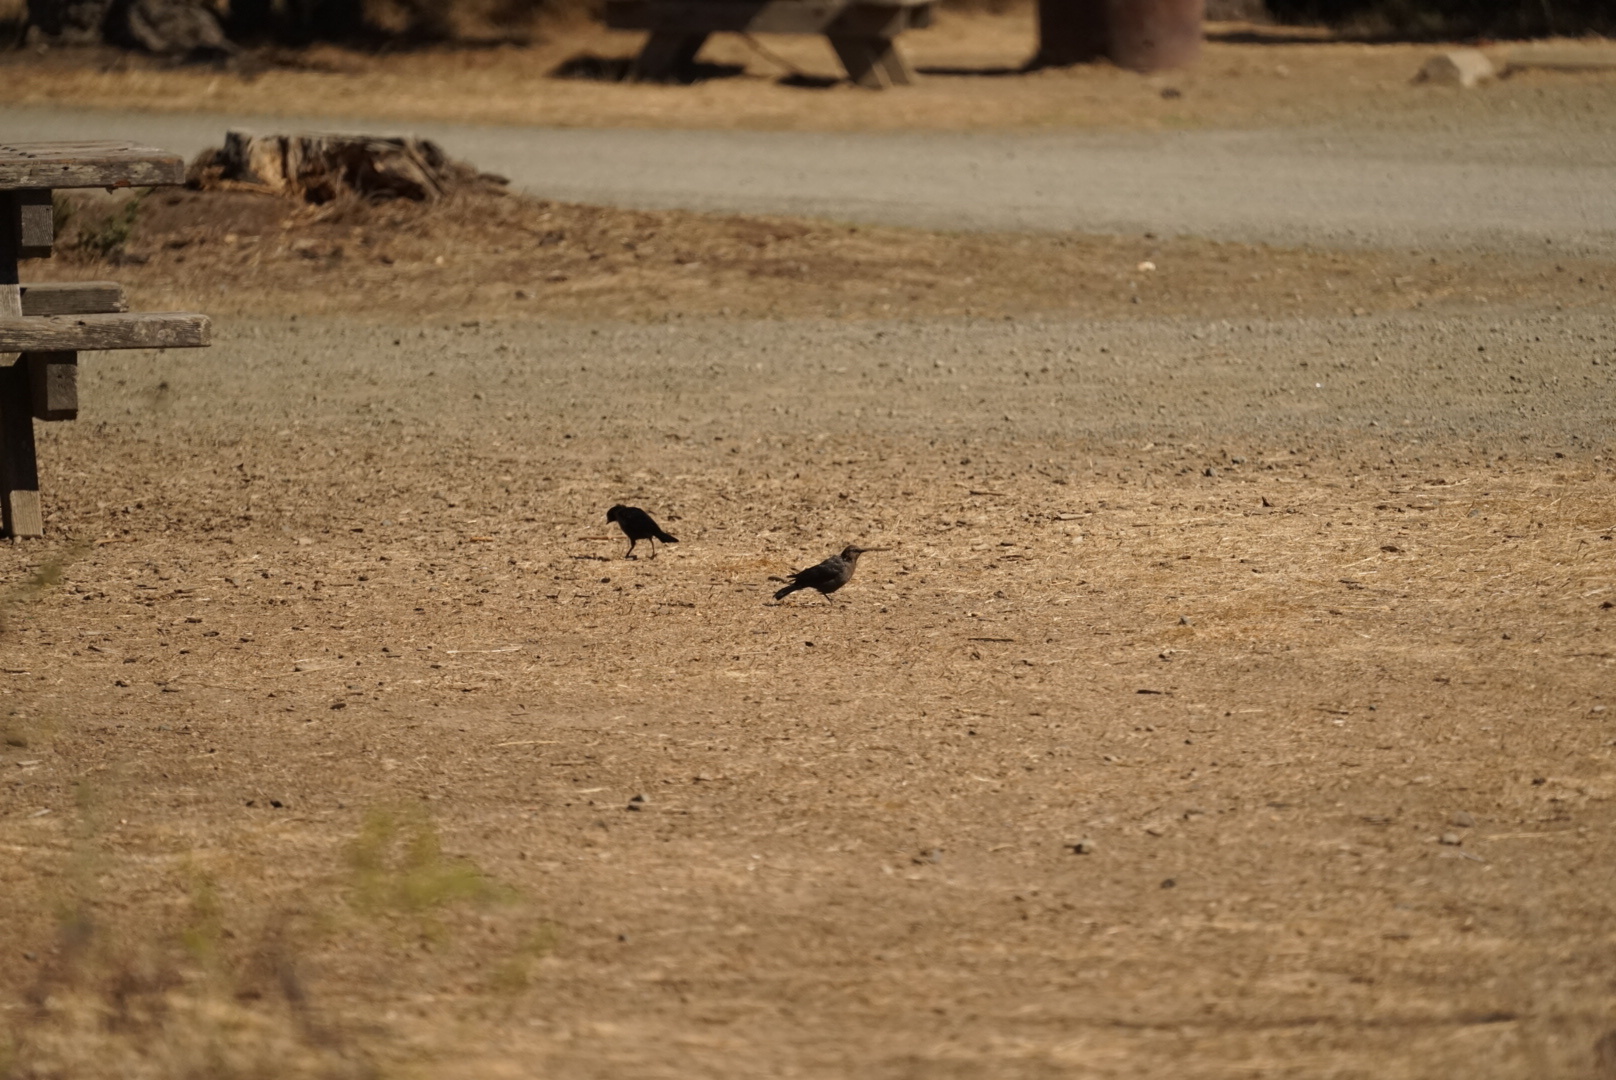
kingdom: Animalia
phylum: Chordata
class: Aves
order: Passeriformes
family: Icteridae
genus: Euphagus
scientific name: Euphagus cyanocephalus
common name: Brewer's blackbird
